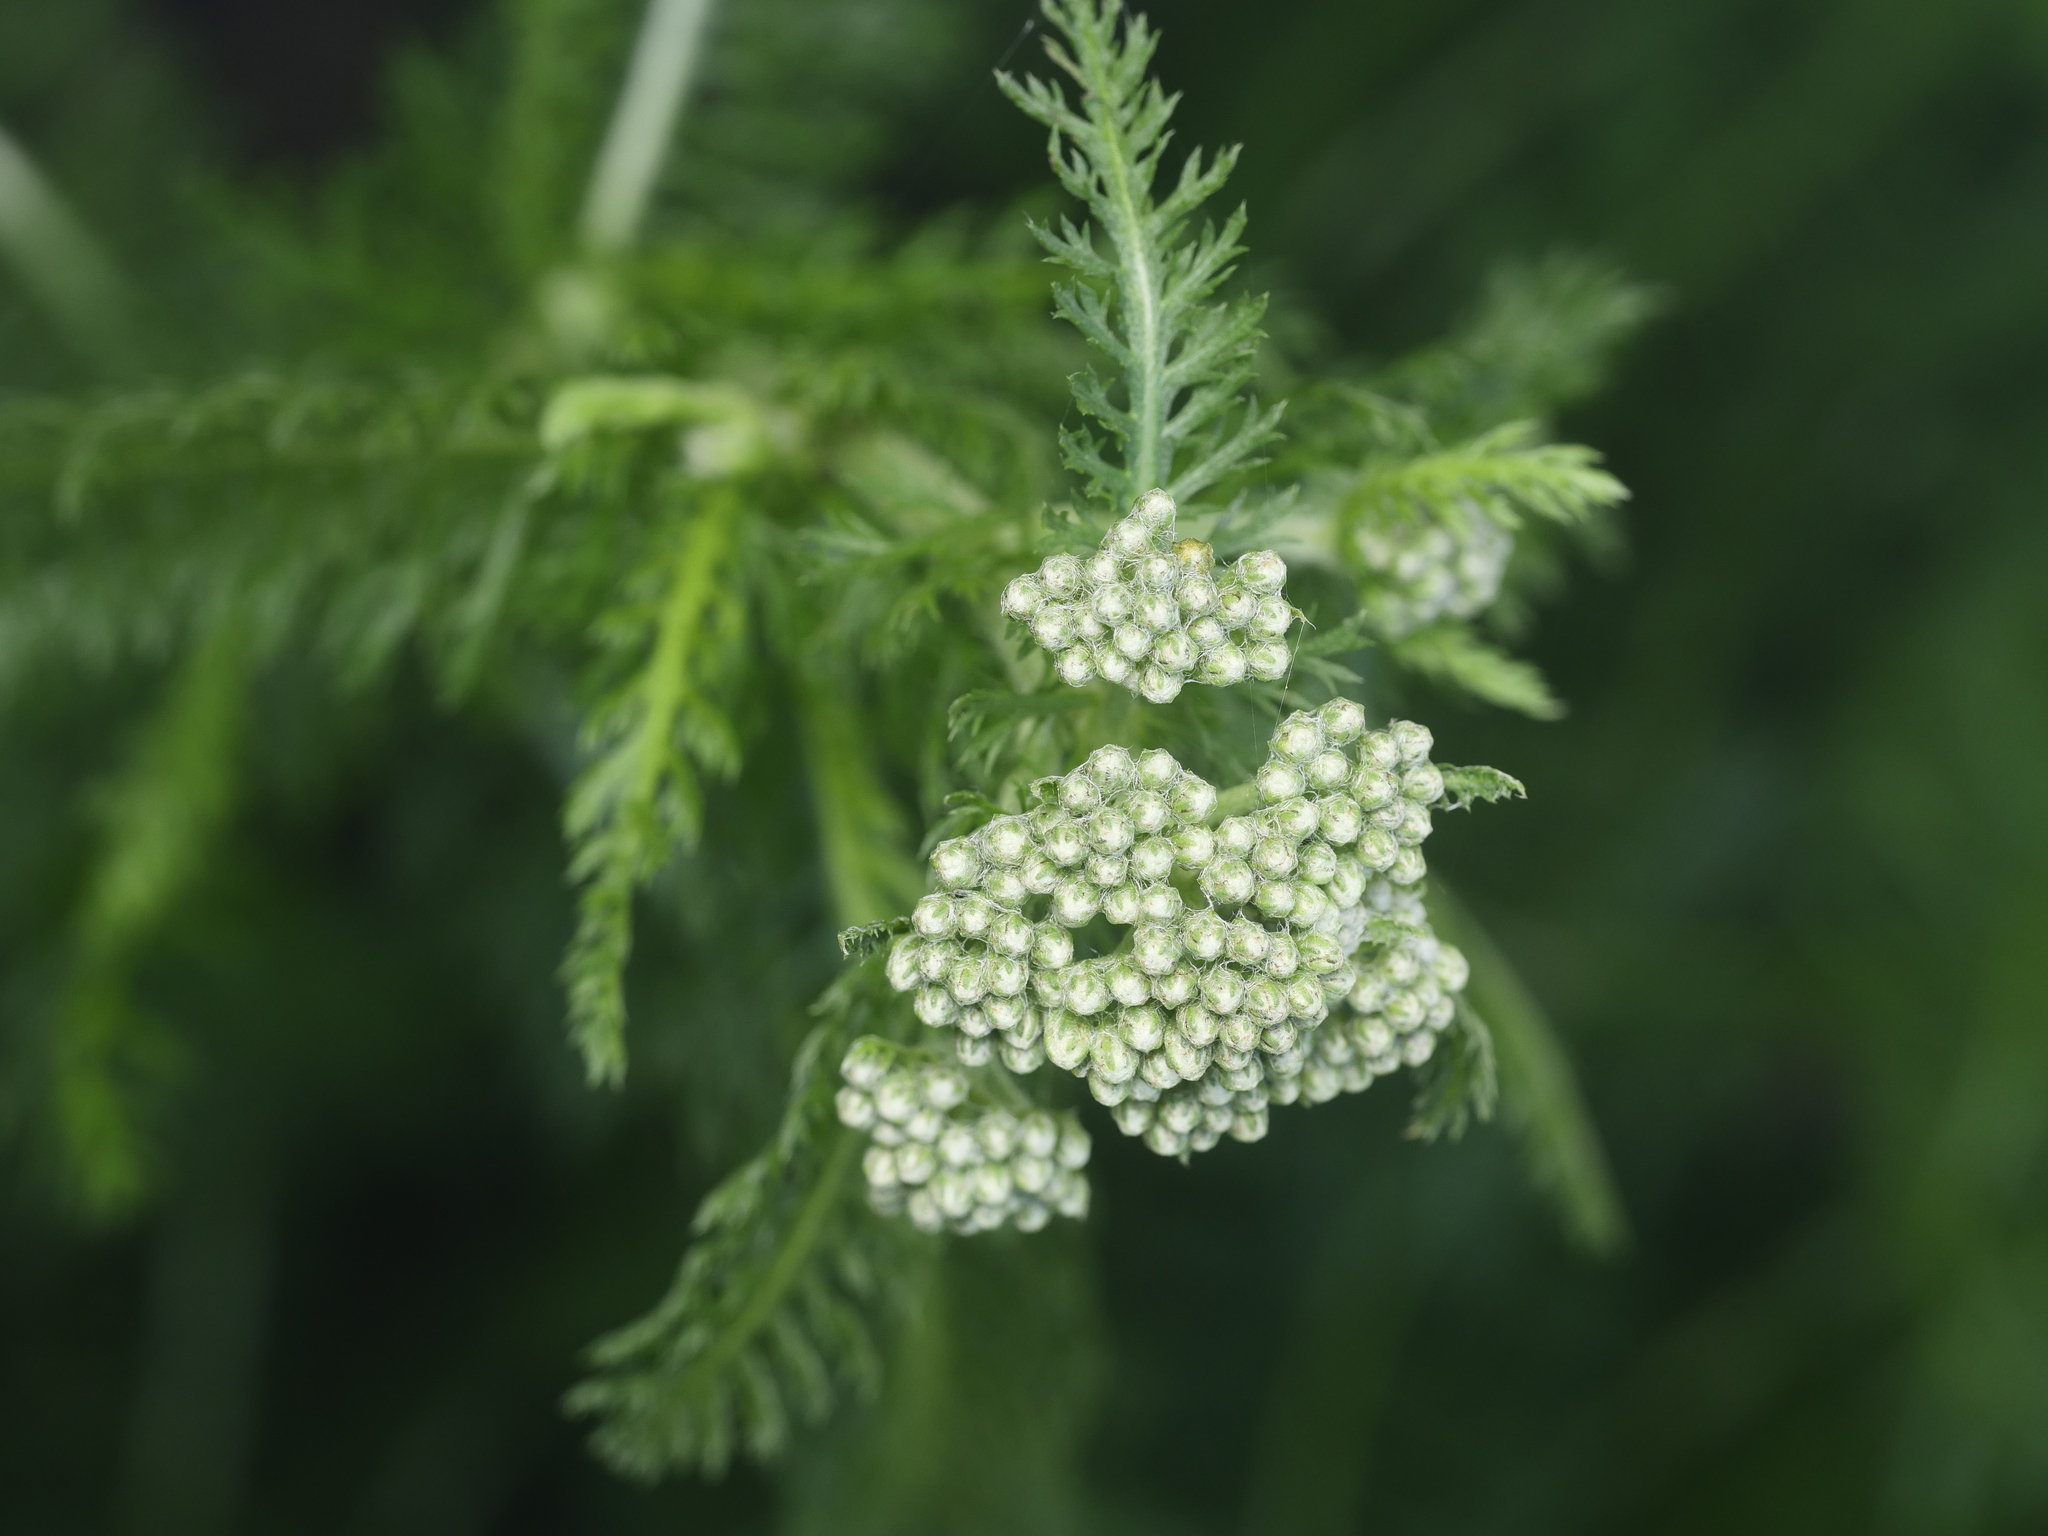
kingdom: Plantae
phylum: Tracheophyta
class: Magnoliopsida
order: Asterales
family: Asteraceae
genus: Achillea
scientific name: Achillea millefolium
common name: Yarrow
